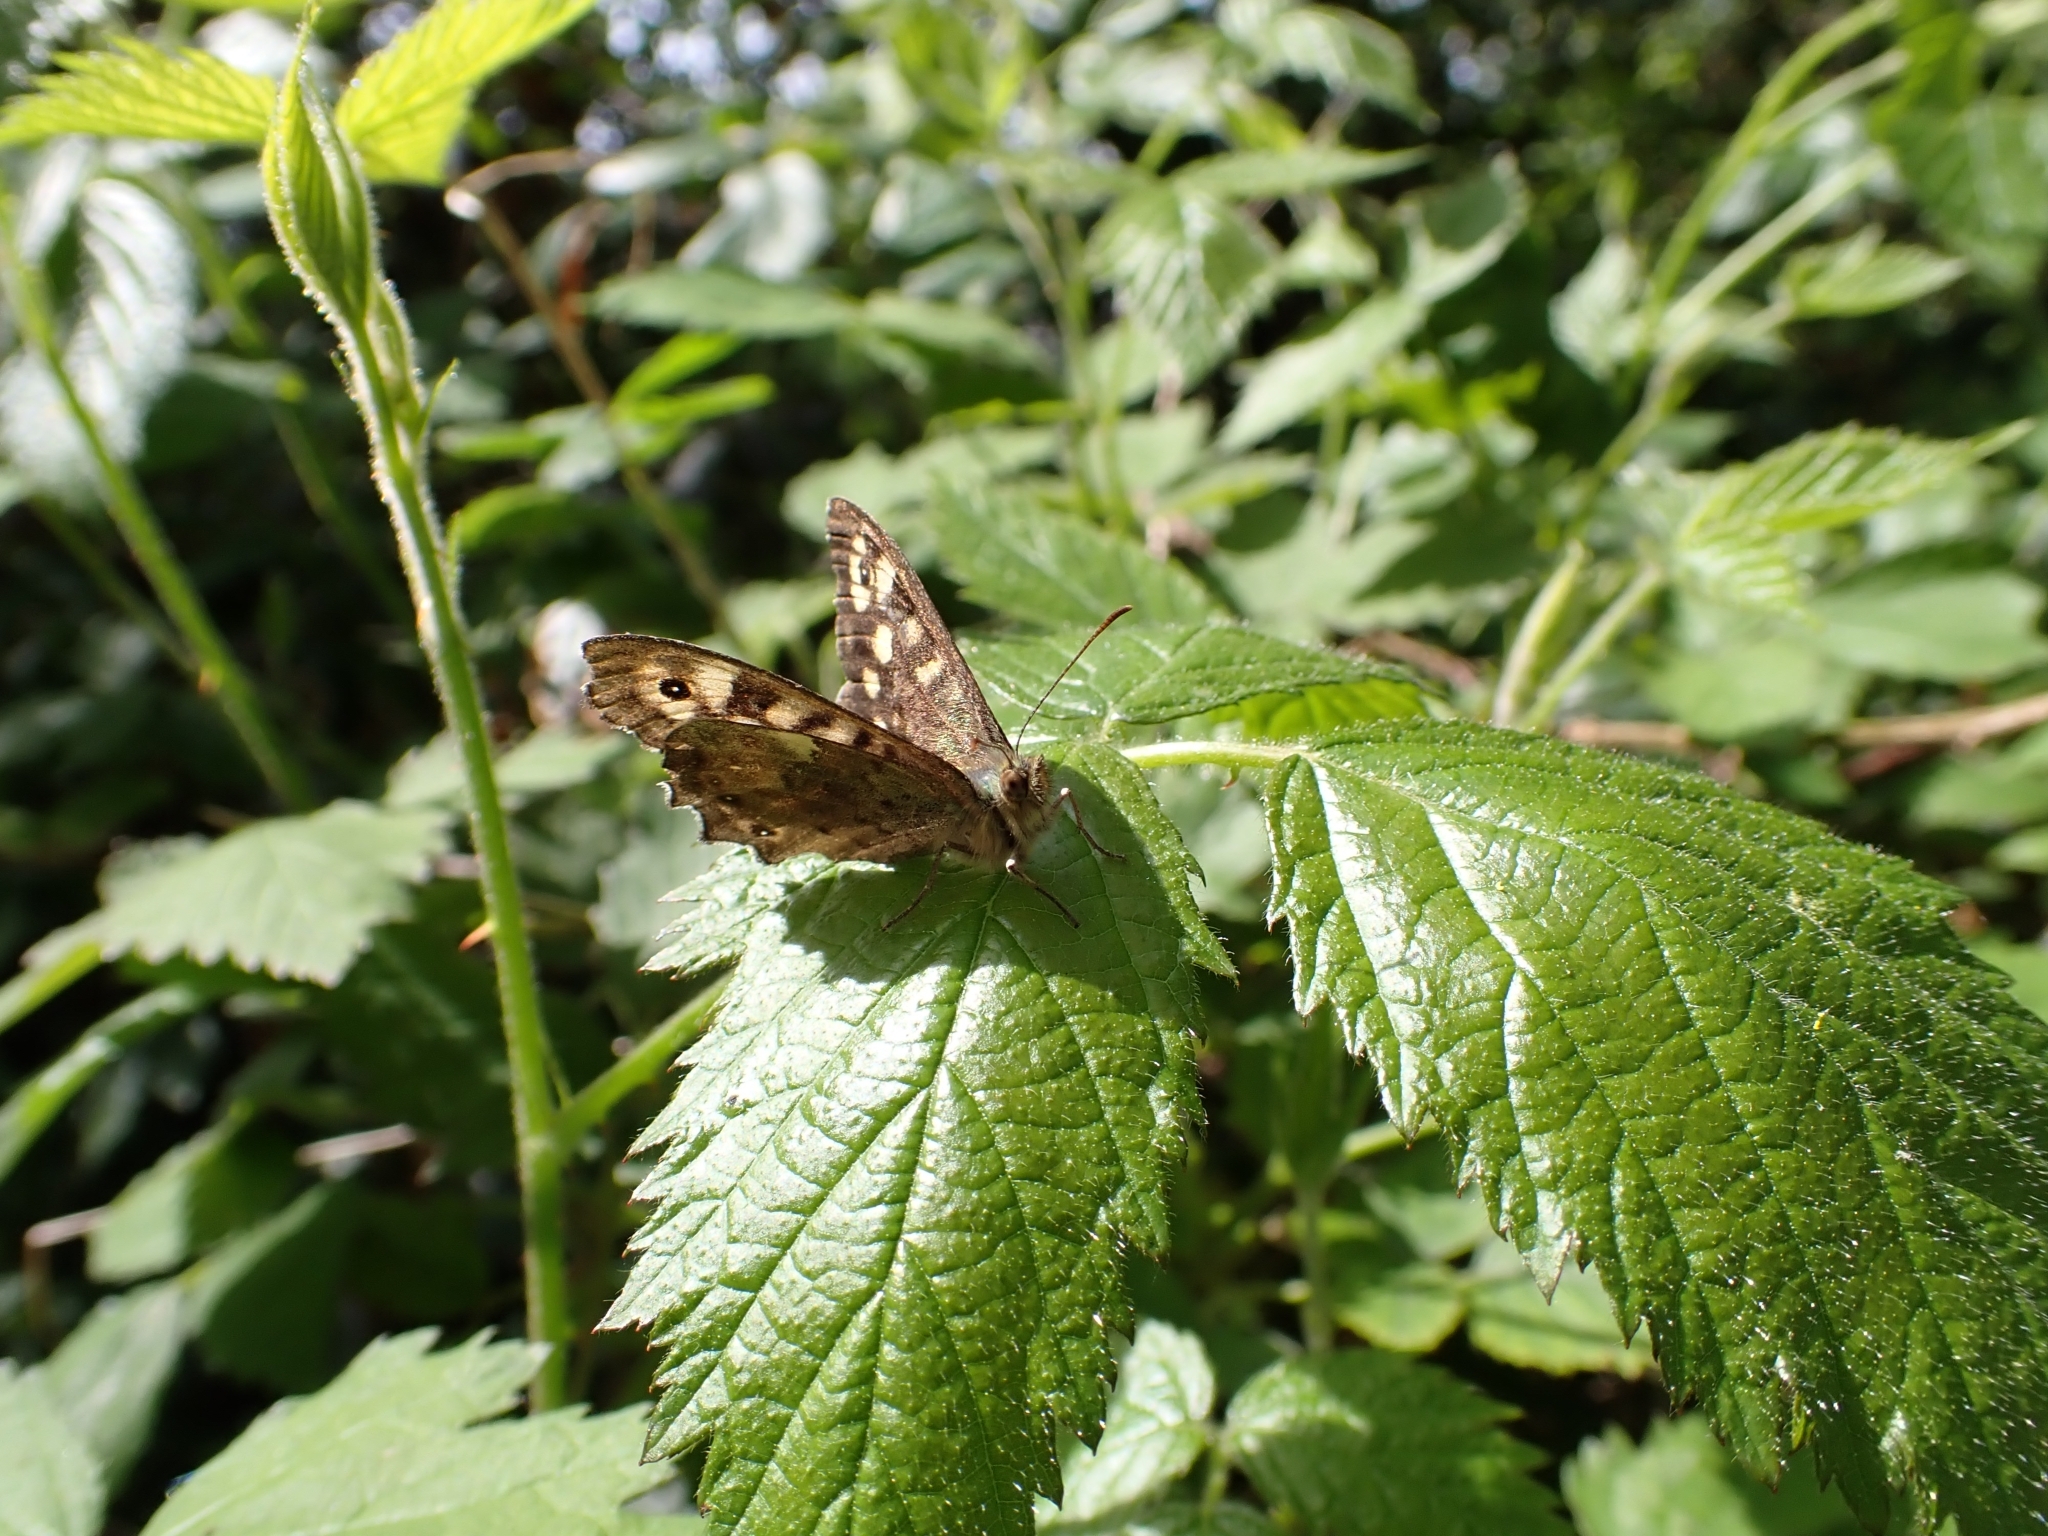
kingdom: Animalia
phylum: Arthropoda
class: Insecta
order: Lepidoptera
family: Nymphalidae
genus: Pararge
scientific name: Pararge aegeria
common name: Speckled wood
